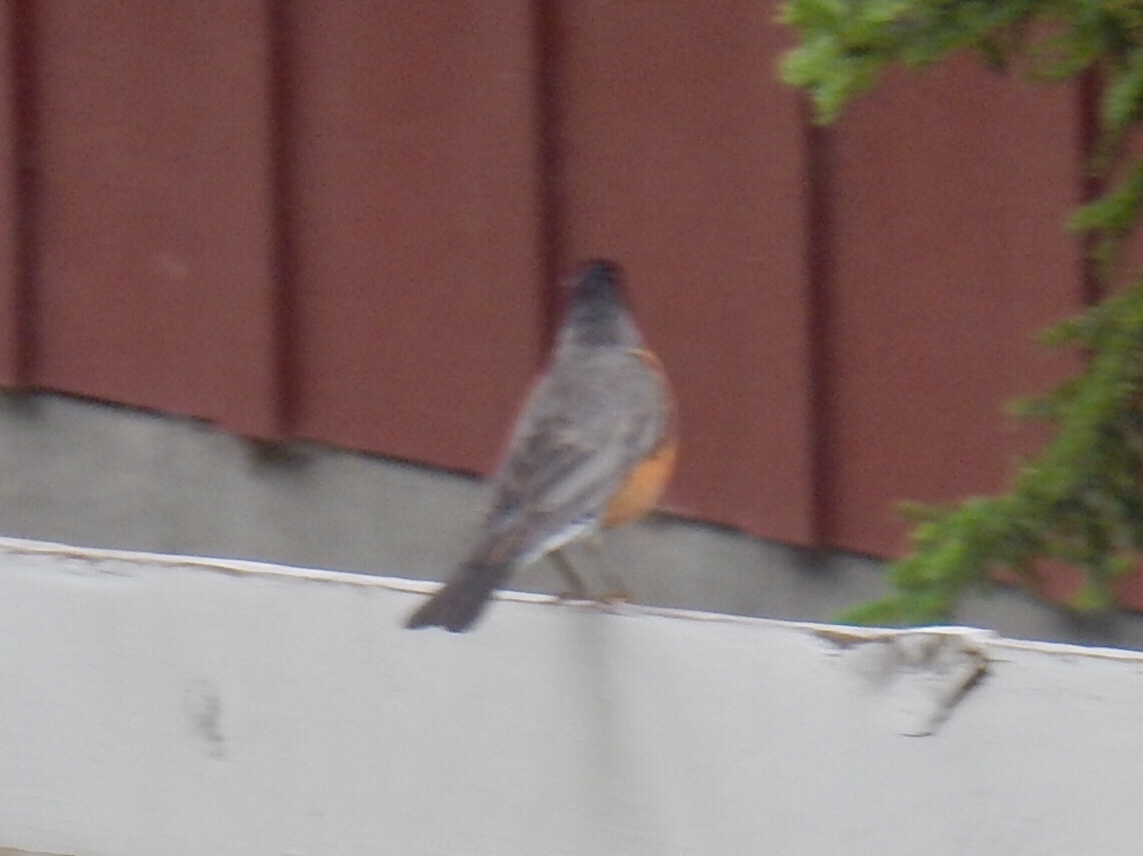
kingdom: Animalia
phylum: Chordata
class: Aves
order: Passeriformes
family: Turdidae
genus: Turdus
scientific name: Turdus migratorius
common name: American robin
